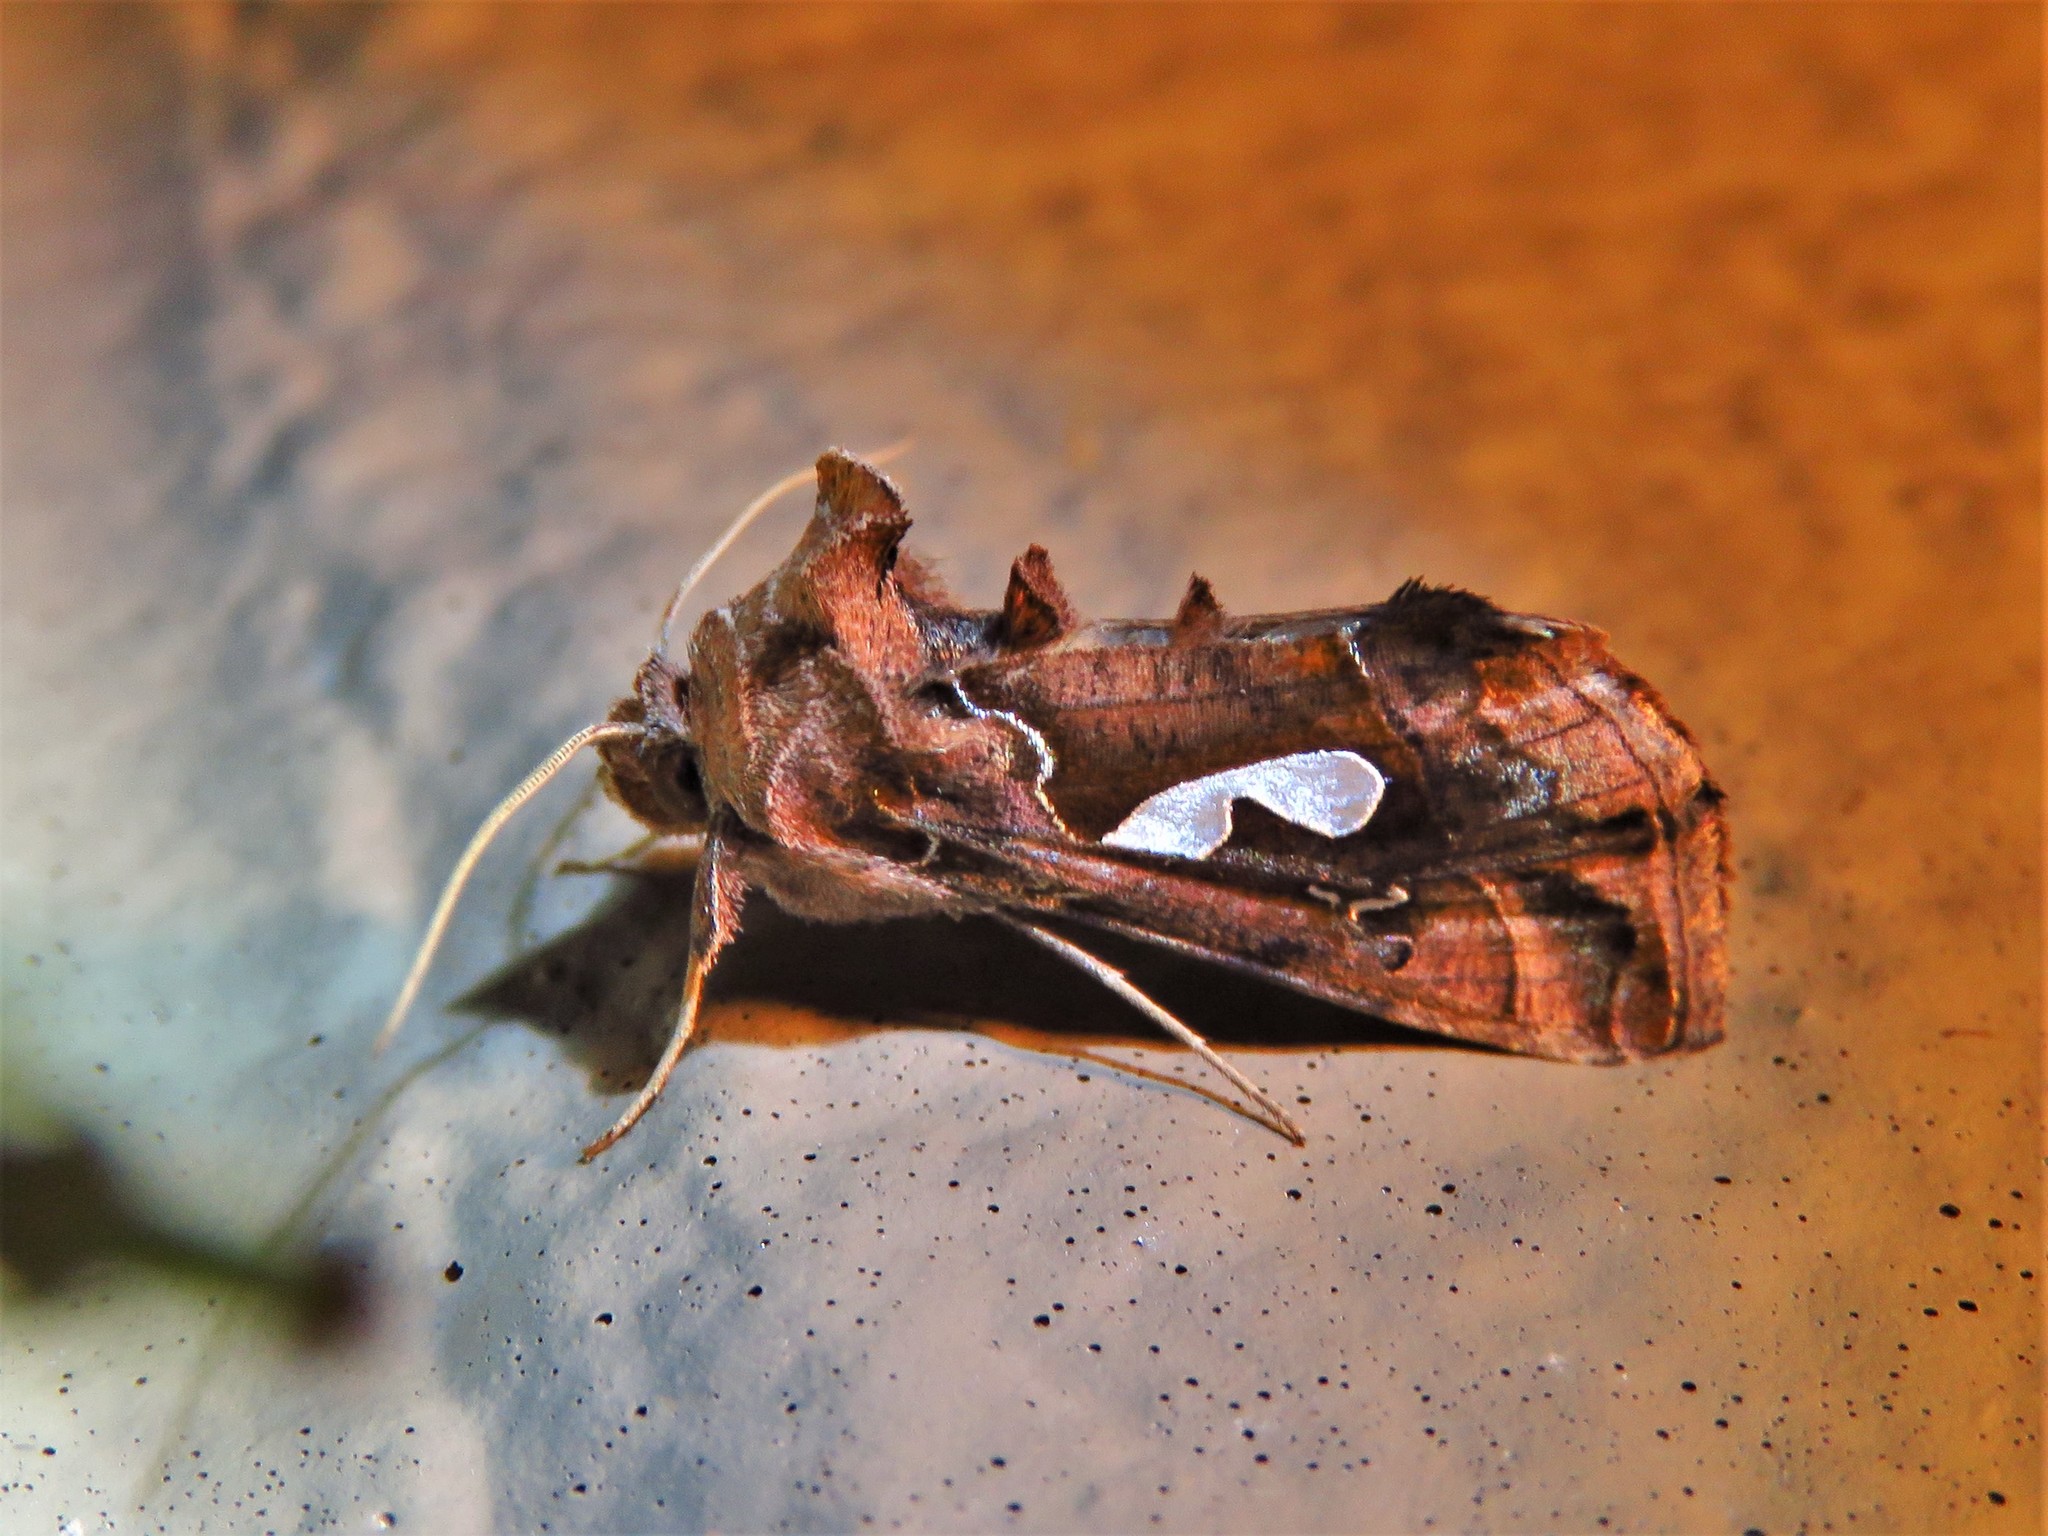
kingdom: Animalia
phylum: Arthropoda
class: Insecta
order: Lepidoptera
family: Noctuidae
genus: Megalographa
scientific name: Megalographa biloba
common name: Cutworm
